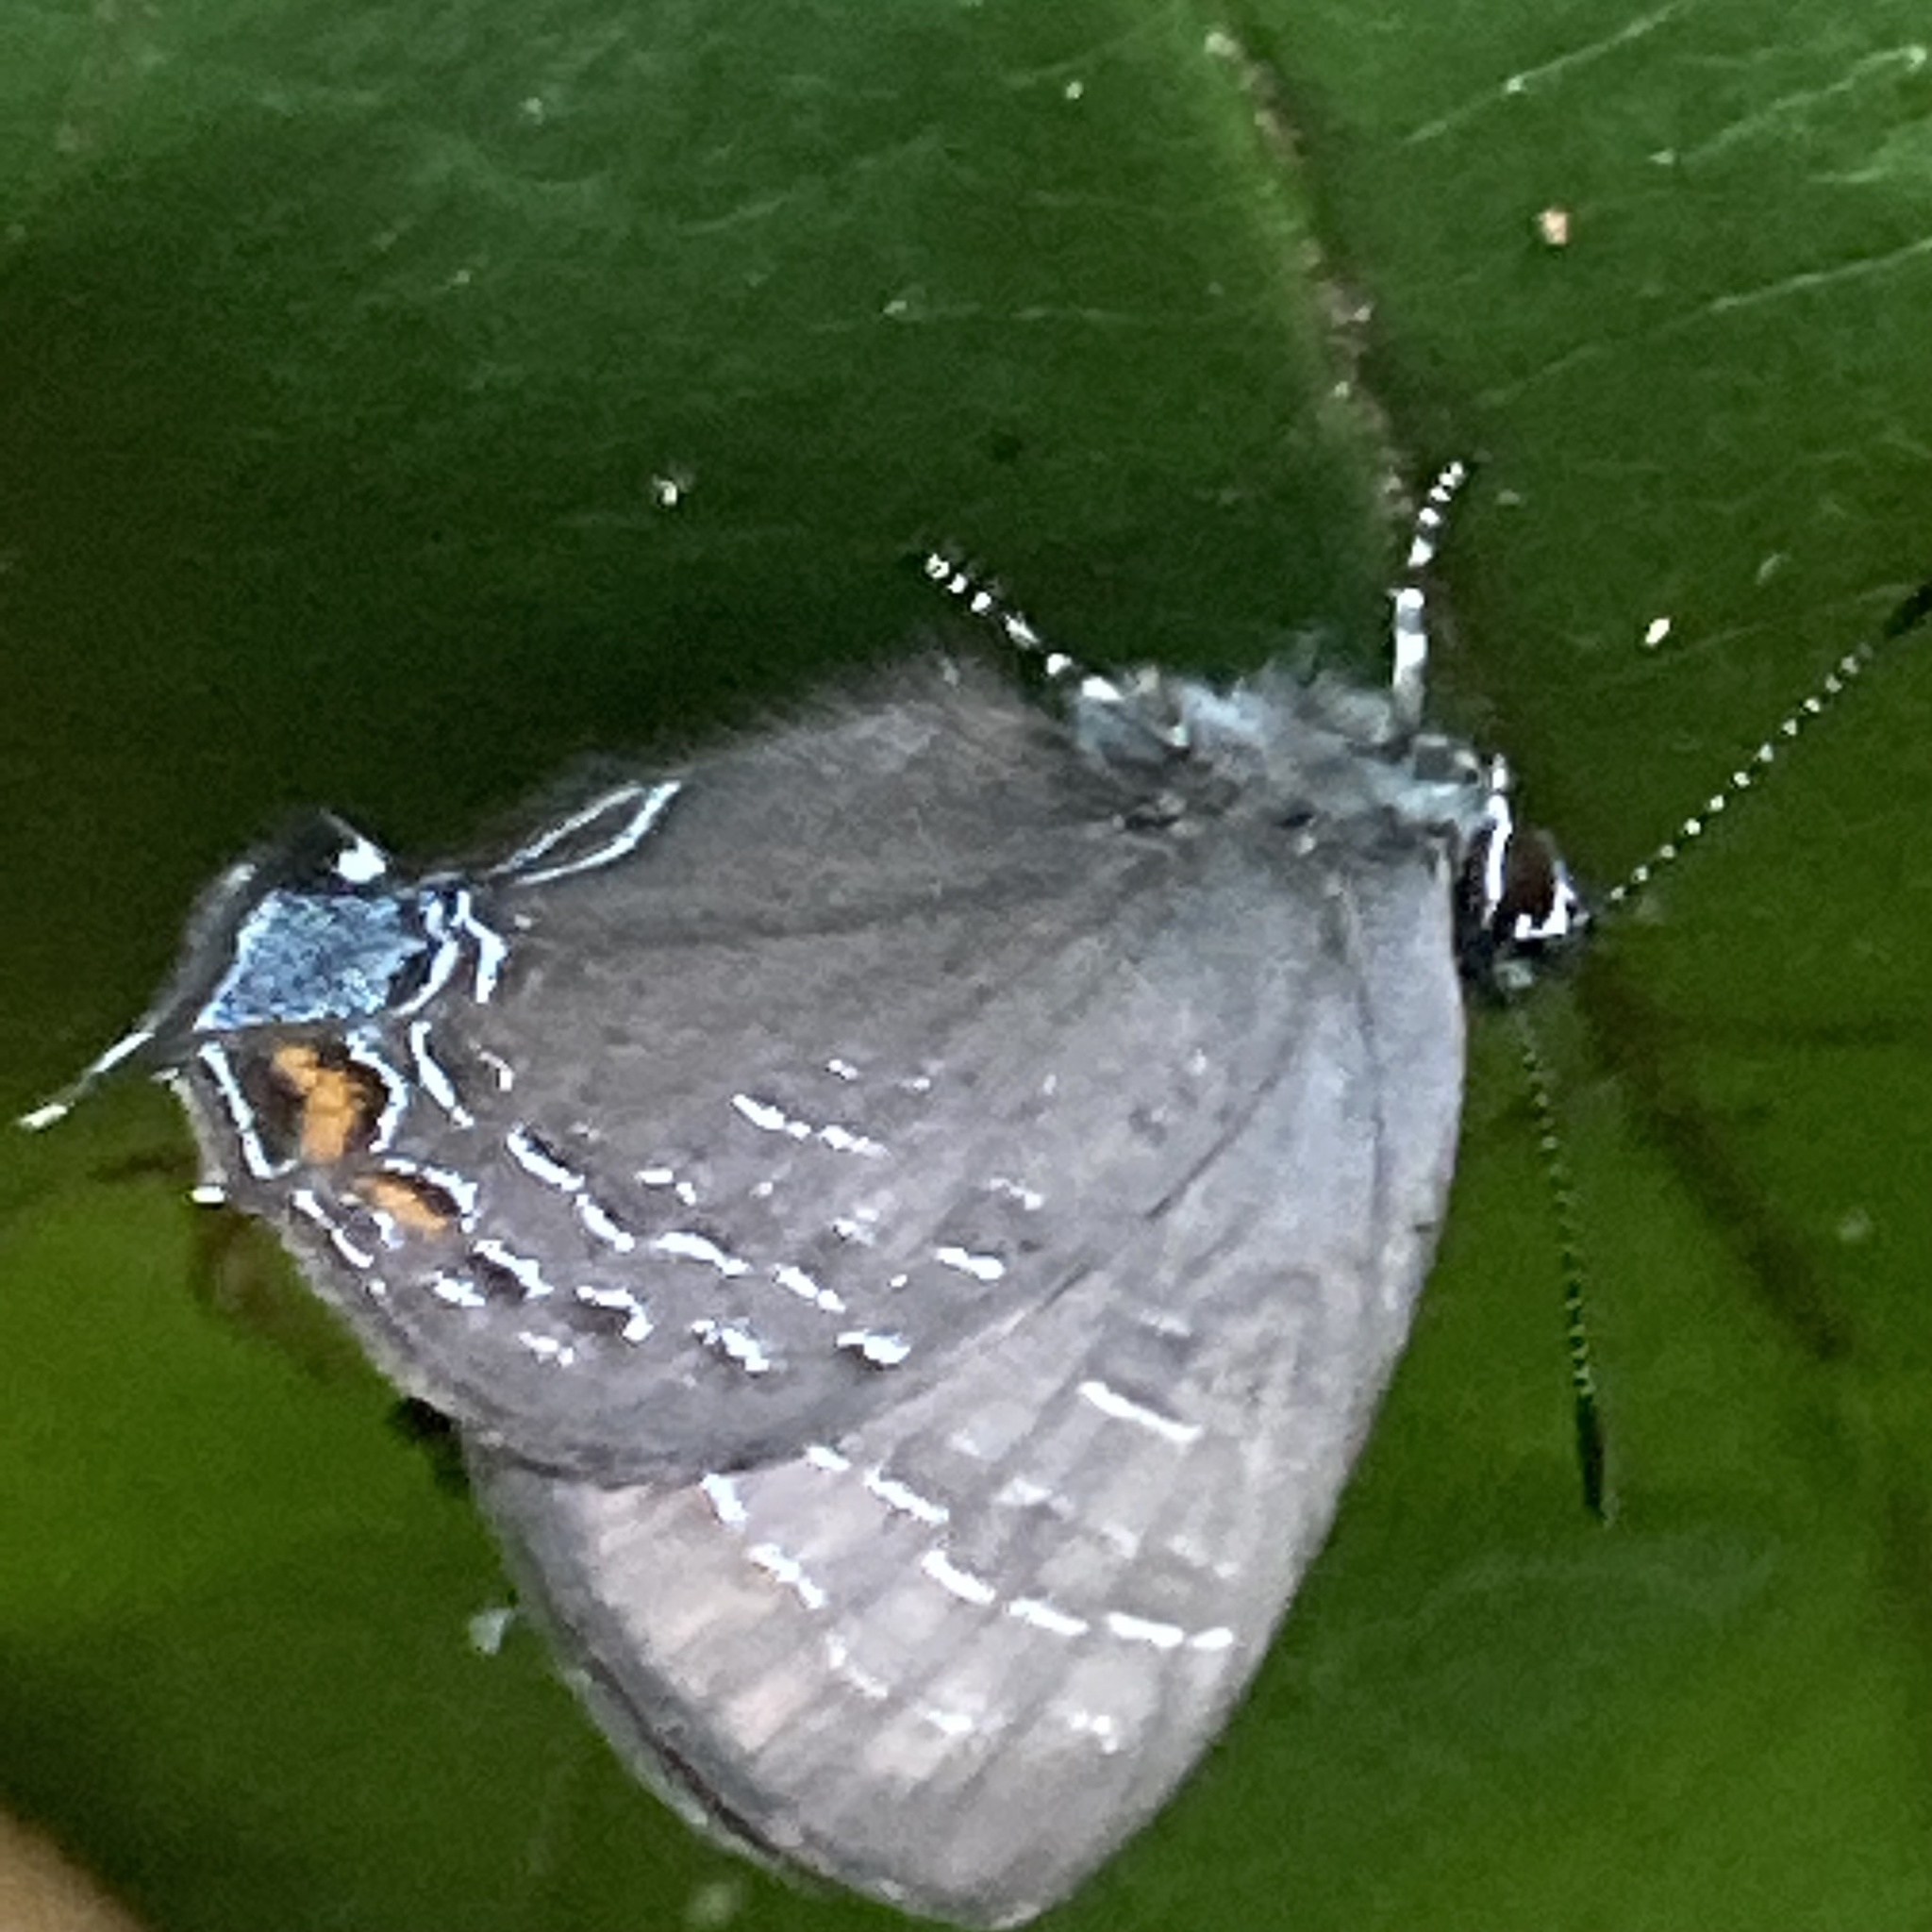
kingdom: Animalia
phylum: Arthropoda
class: Insecta
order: Lepidoptera
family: Lycaenidae
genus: Satyrium
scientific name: Satyrium calanus
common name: Banded hairstreak
